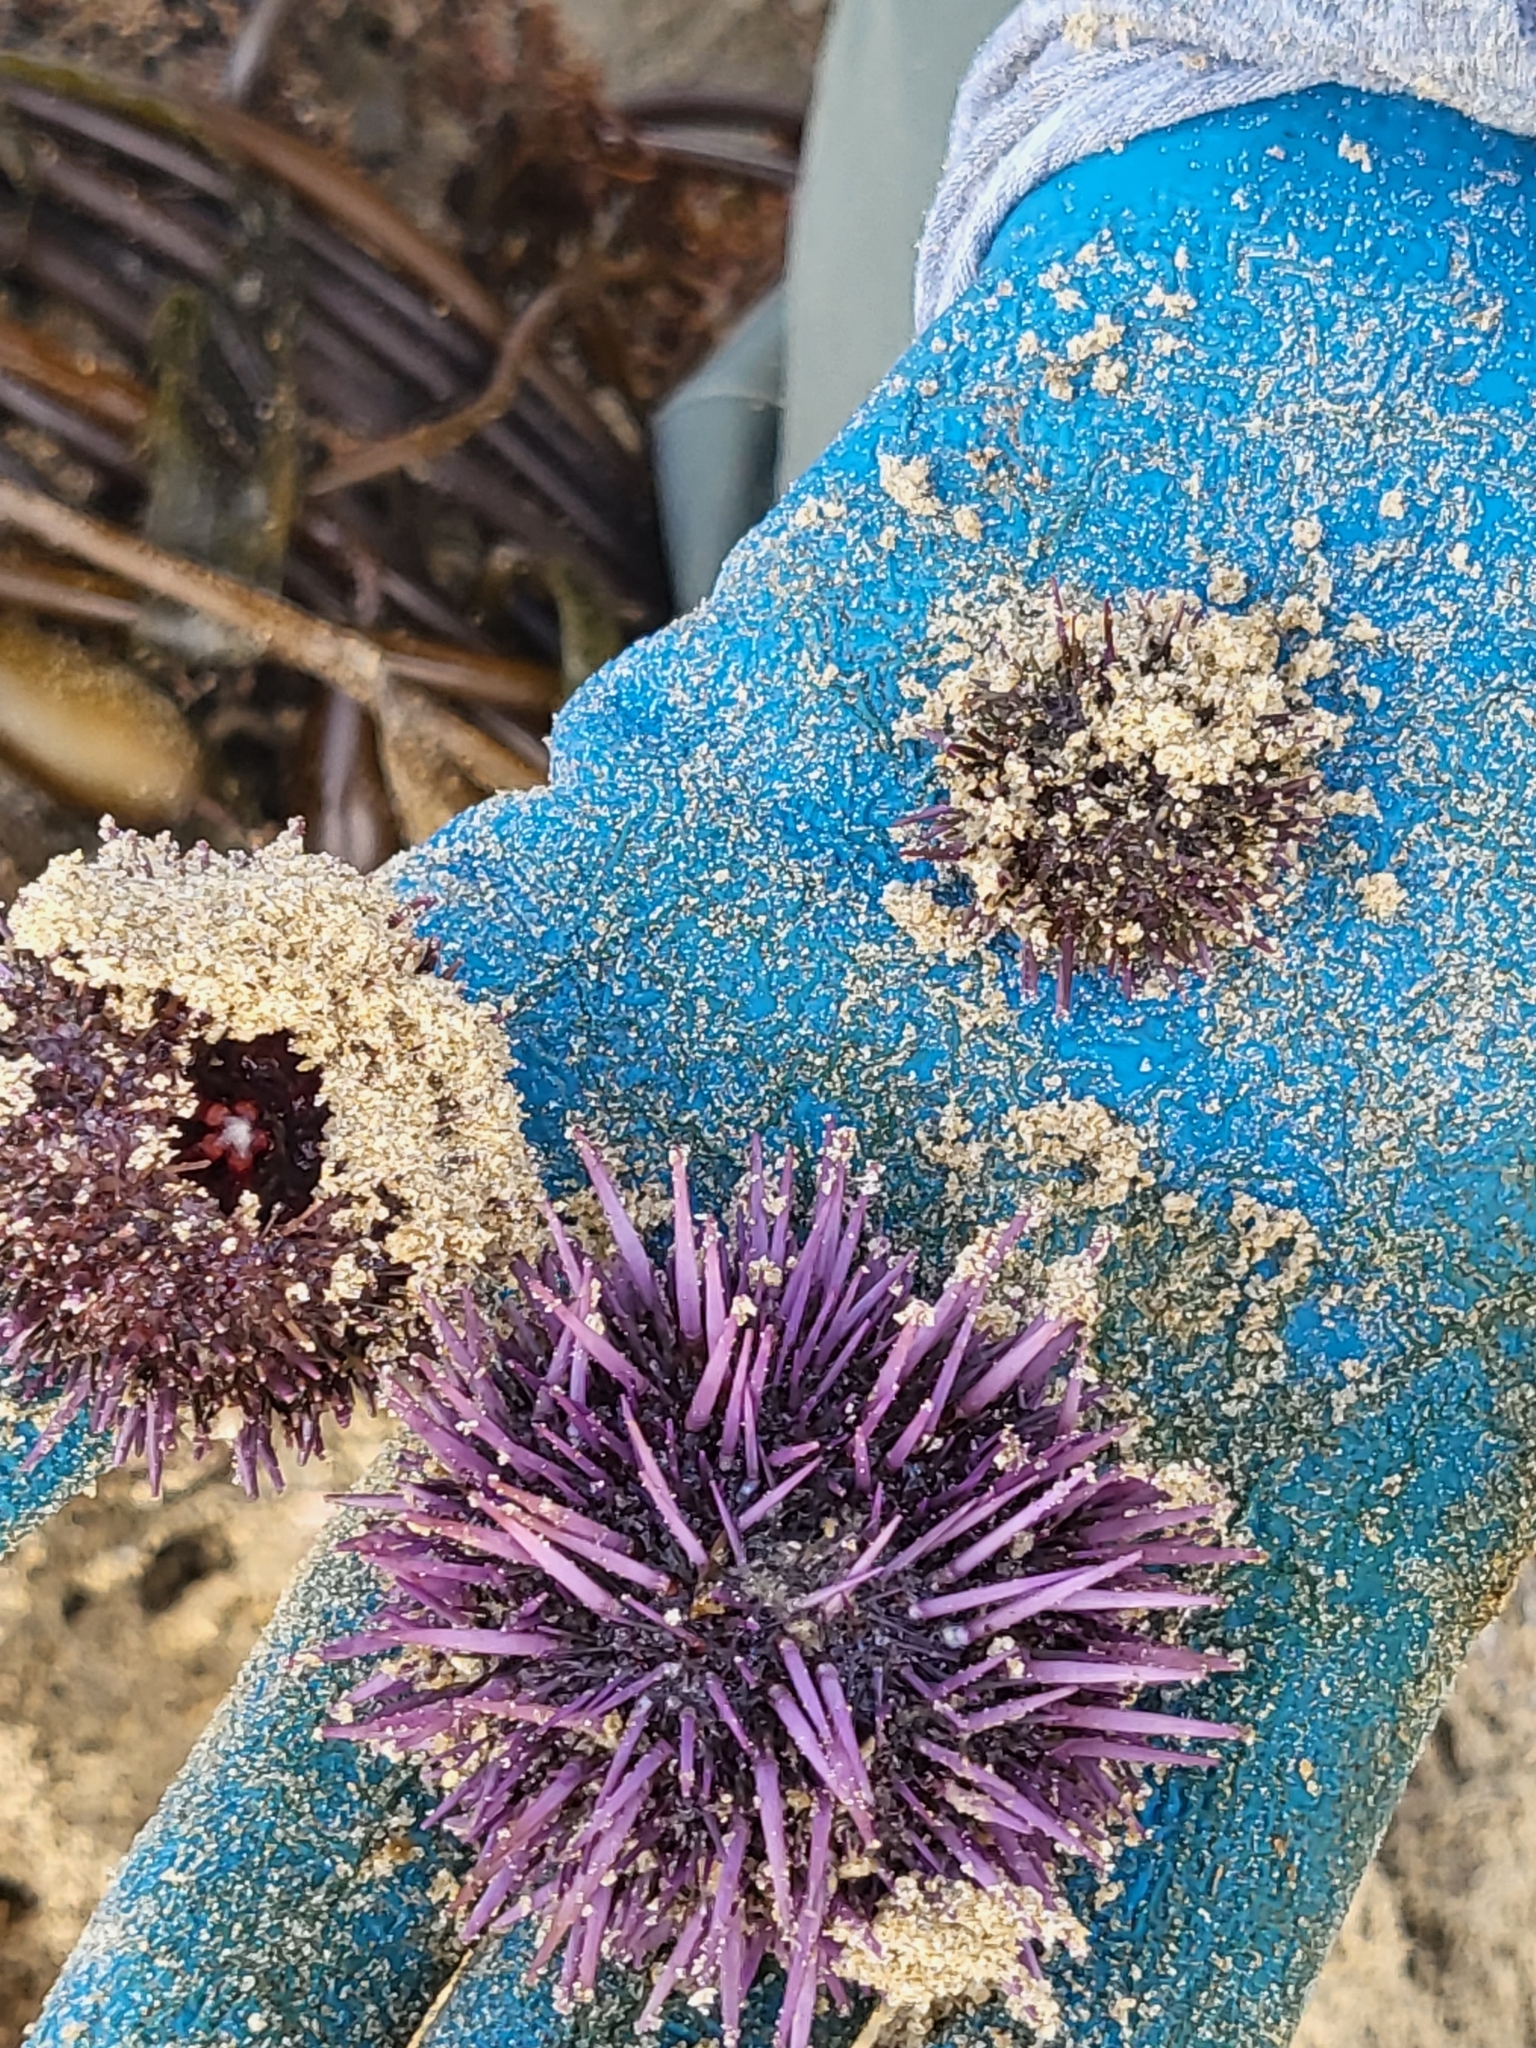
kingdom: Animalia
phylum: Echinodermata
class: Echinoidea
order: Camarodonta
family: Strongylocentrotidae
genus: Strongylocentrotus
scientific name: Strongylocentrotus purpuratus
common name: Purple sea urchin
